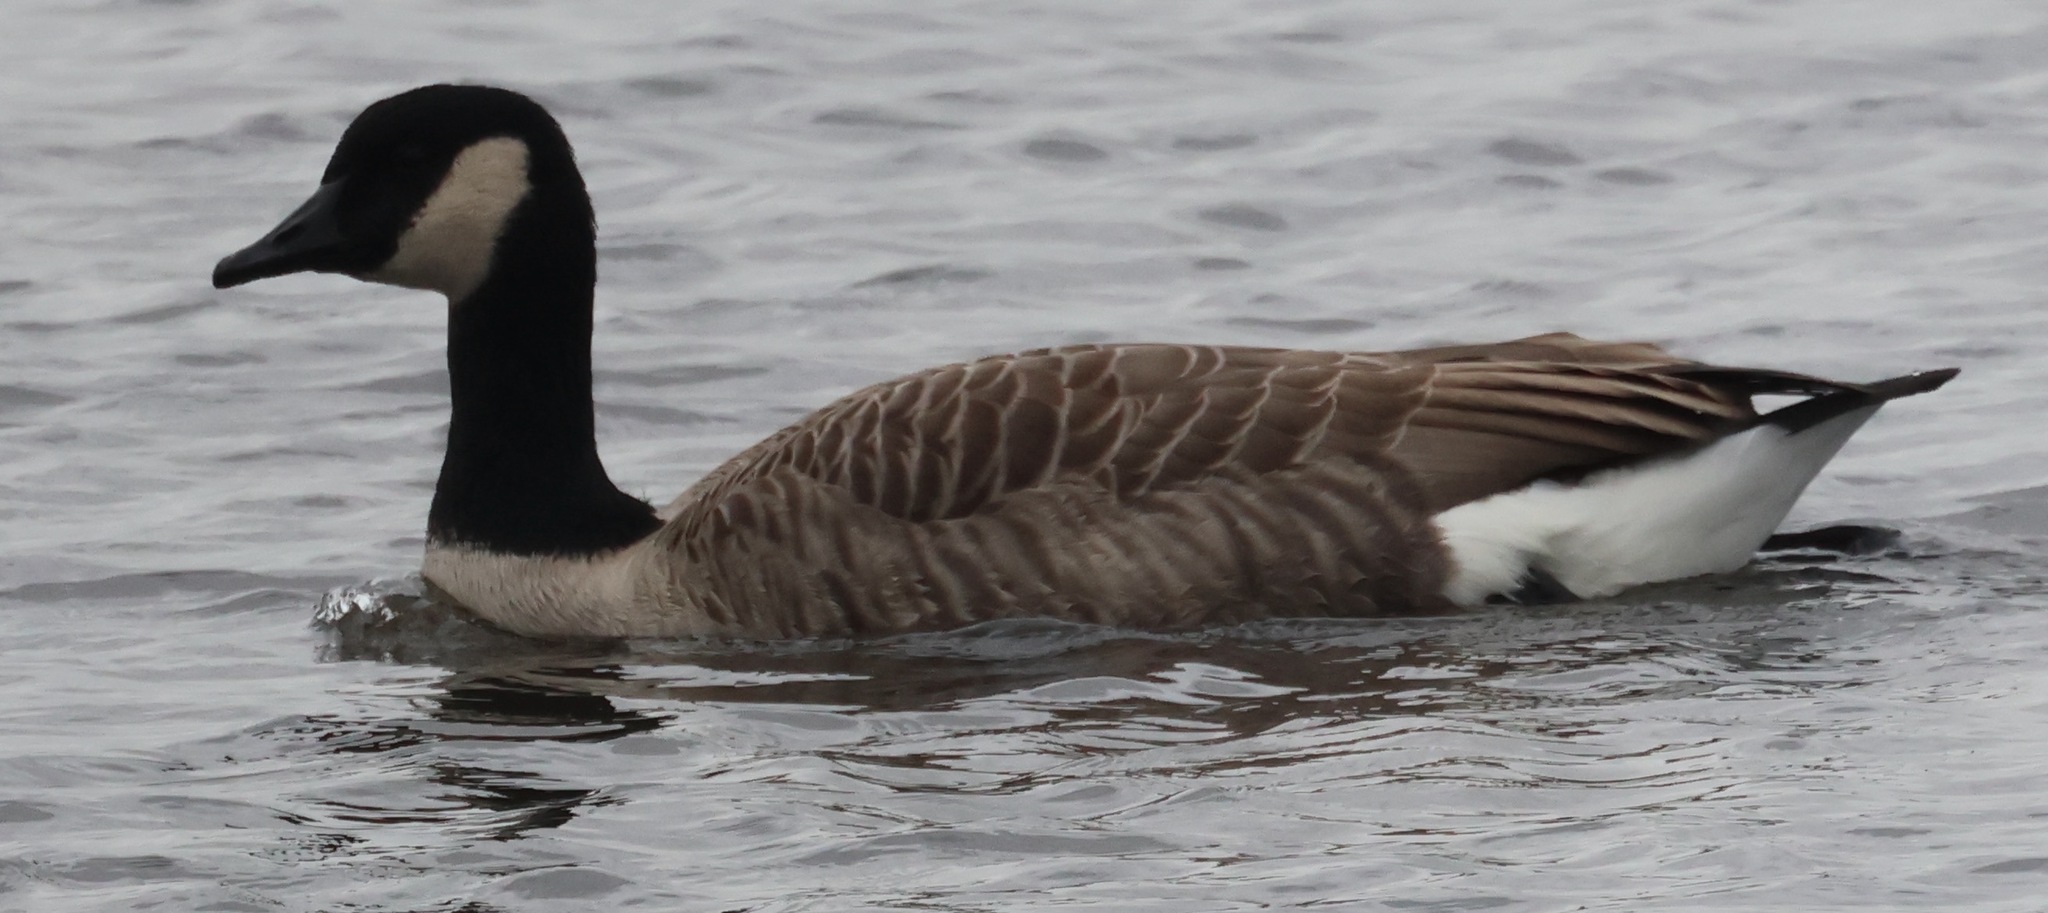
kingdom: Animalia
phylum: Chordata
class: Aves
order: Anseriformes
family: Anatidae
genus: Branta
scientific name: Branta canadensis
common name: Canada goose
